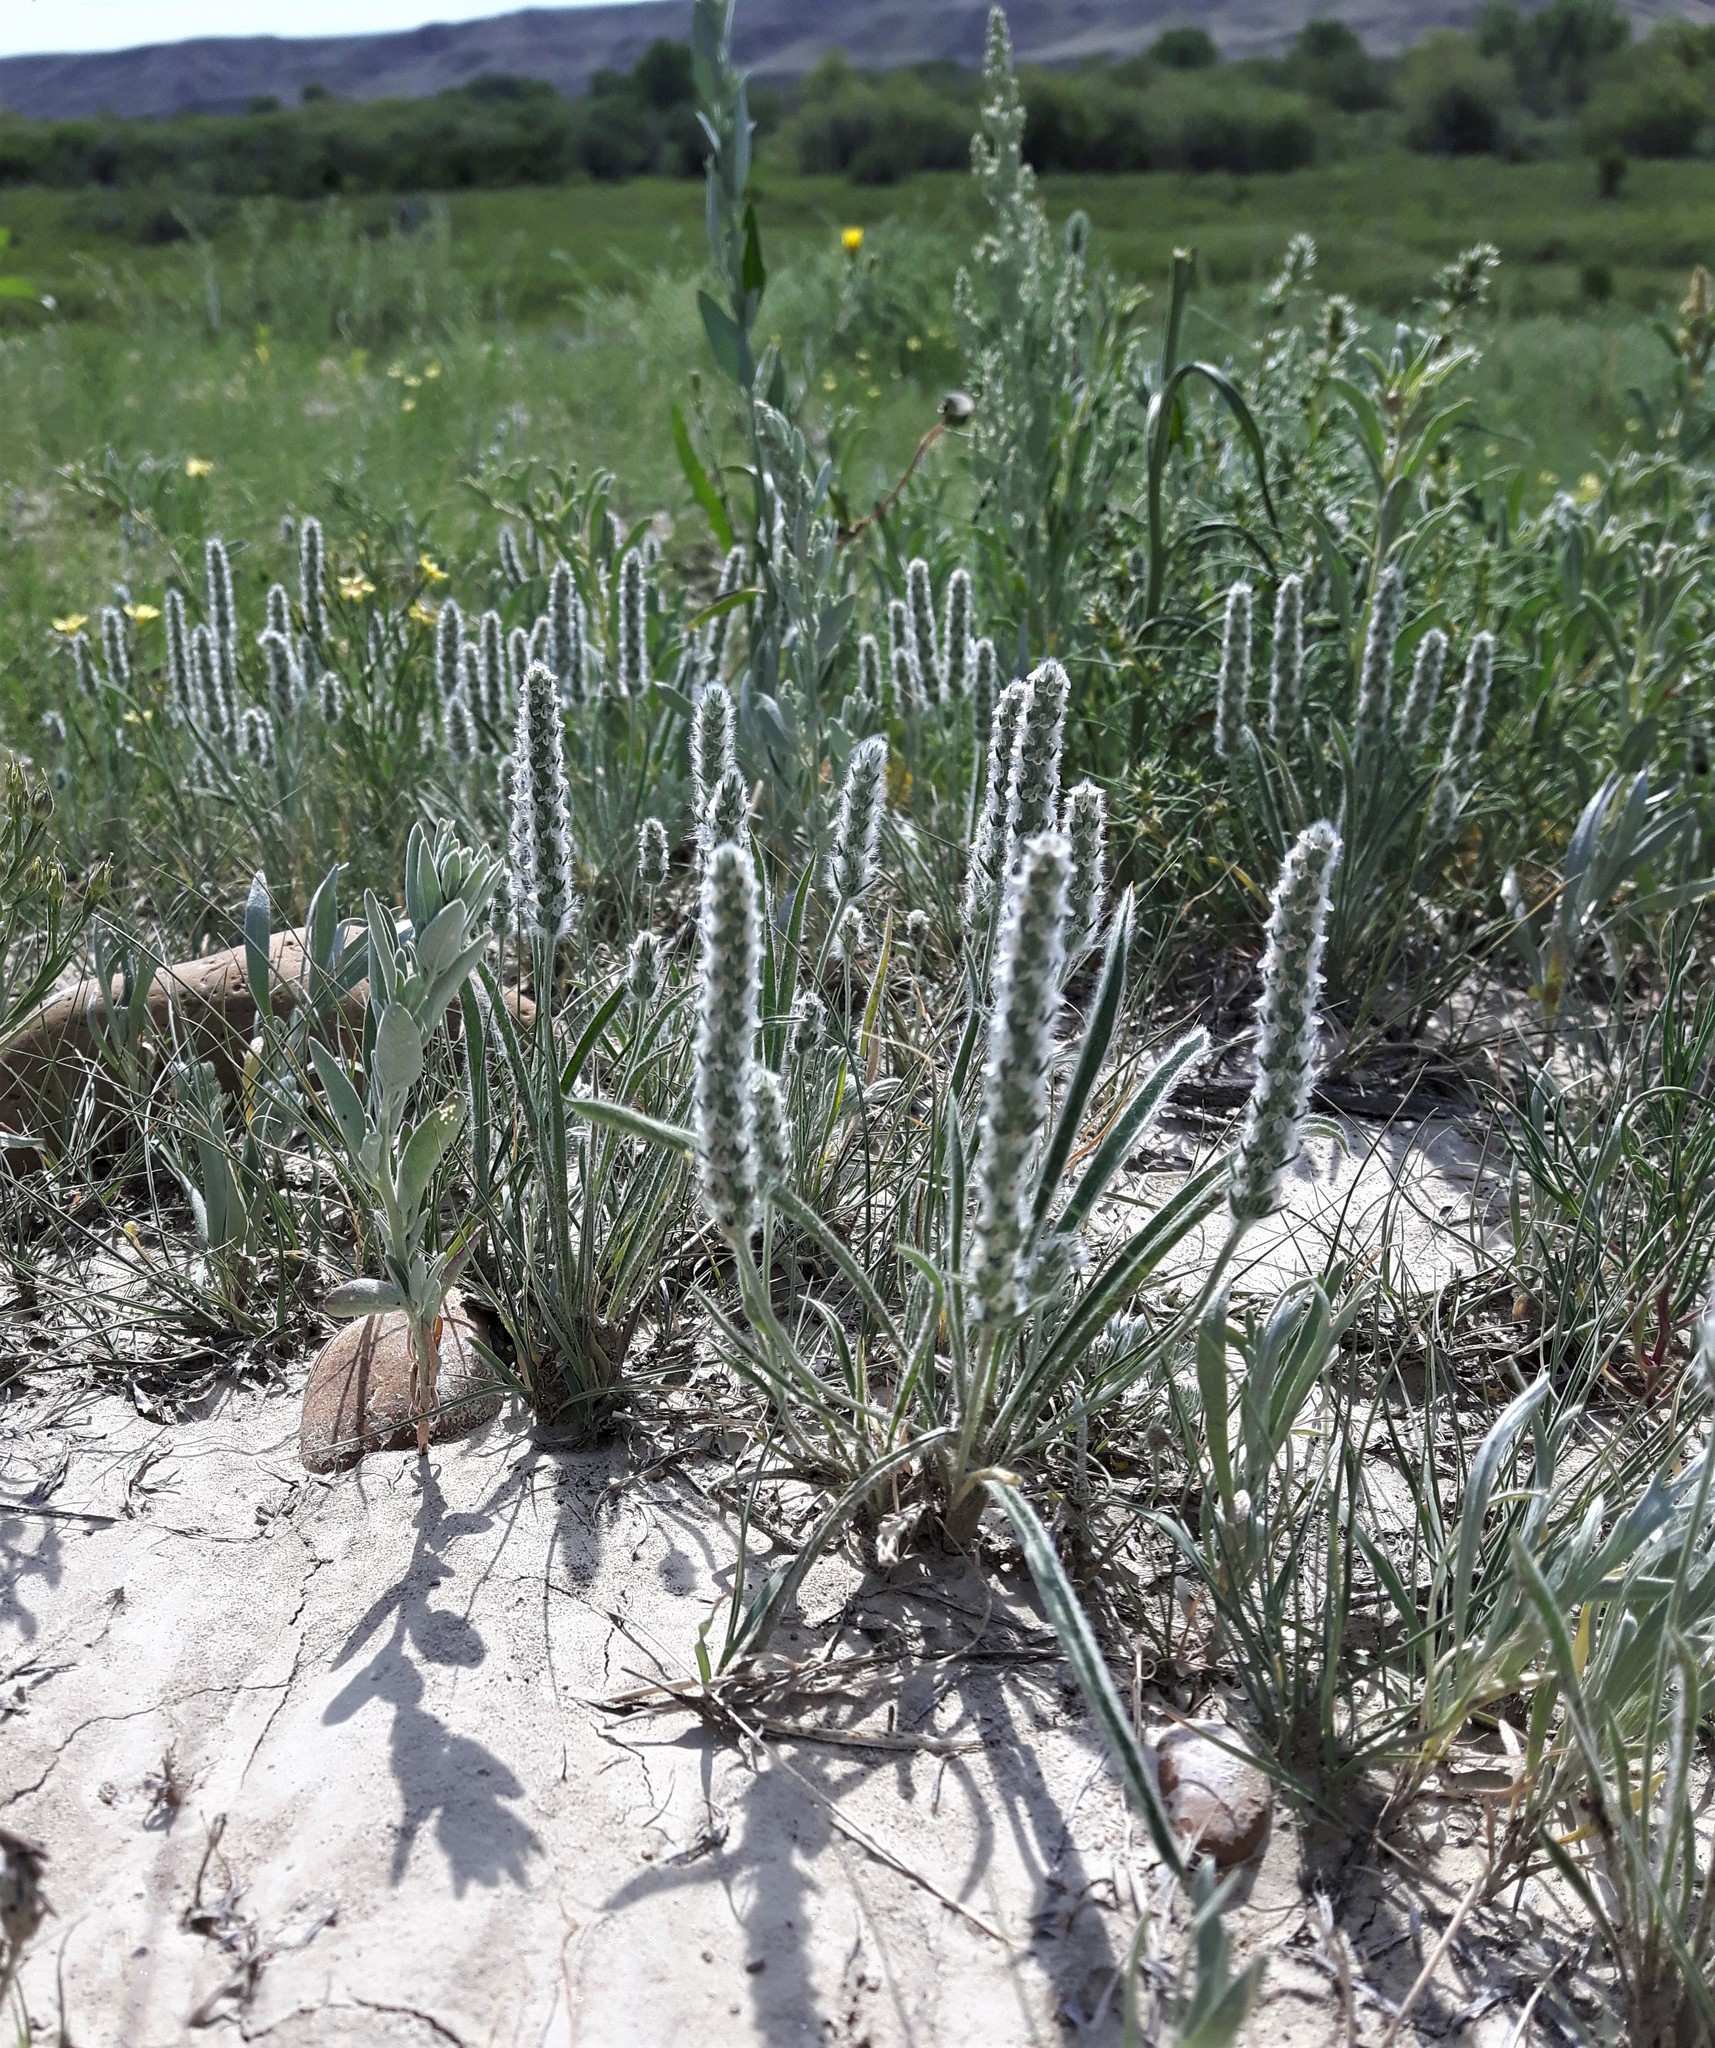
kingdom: Plantae
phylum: Tracheophyta
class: Magnoliopsida
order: Lamiales
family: Plantaginaceae
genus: Plantago
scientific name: Plantago patagonica
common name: Patagonia indian-wheat
